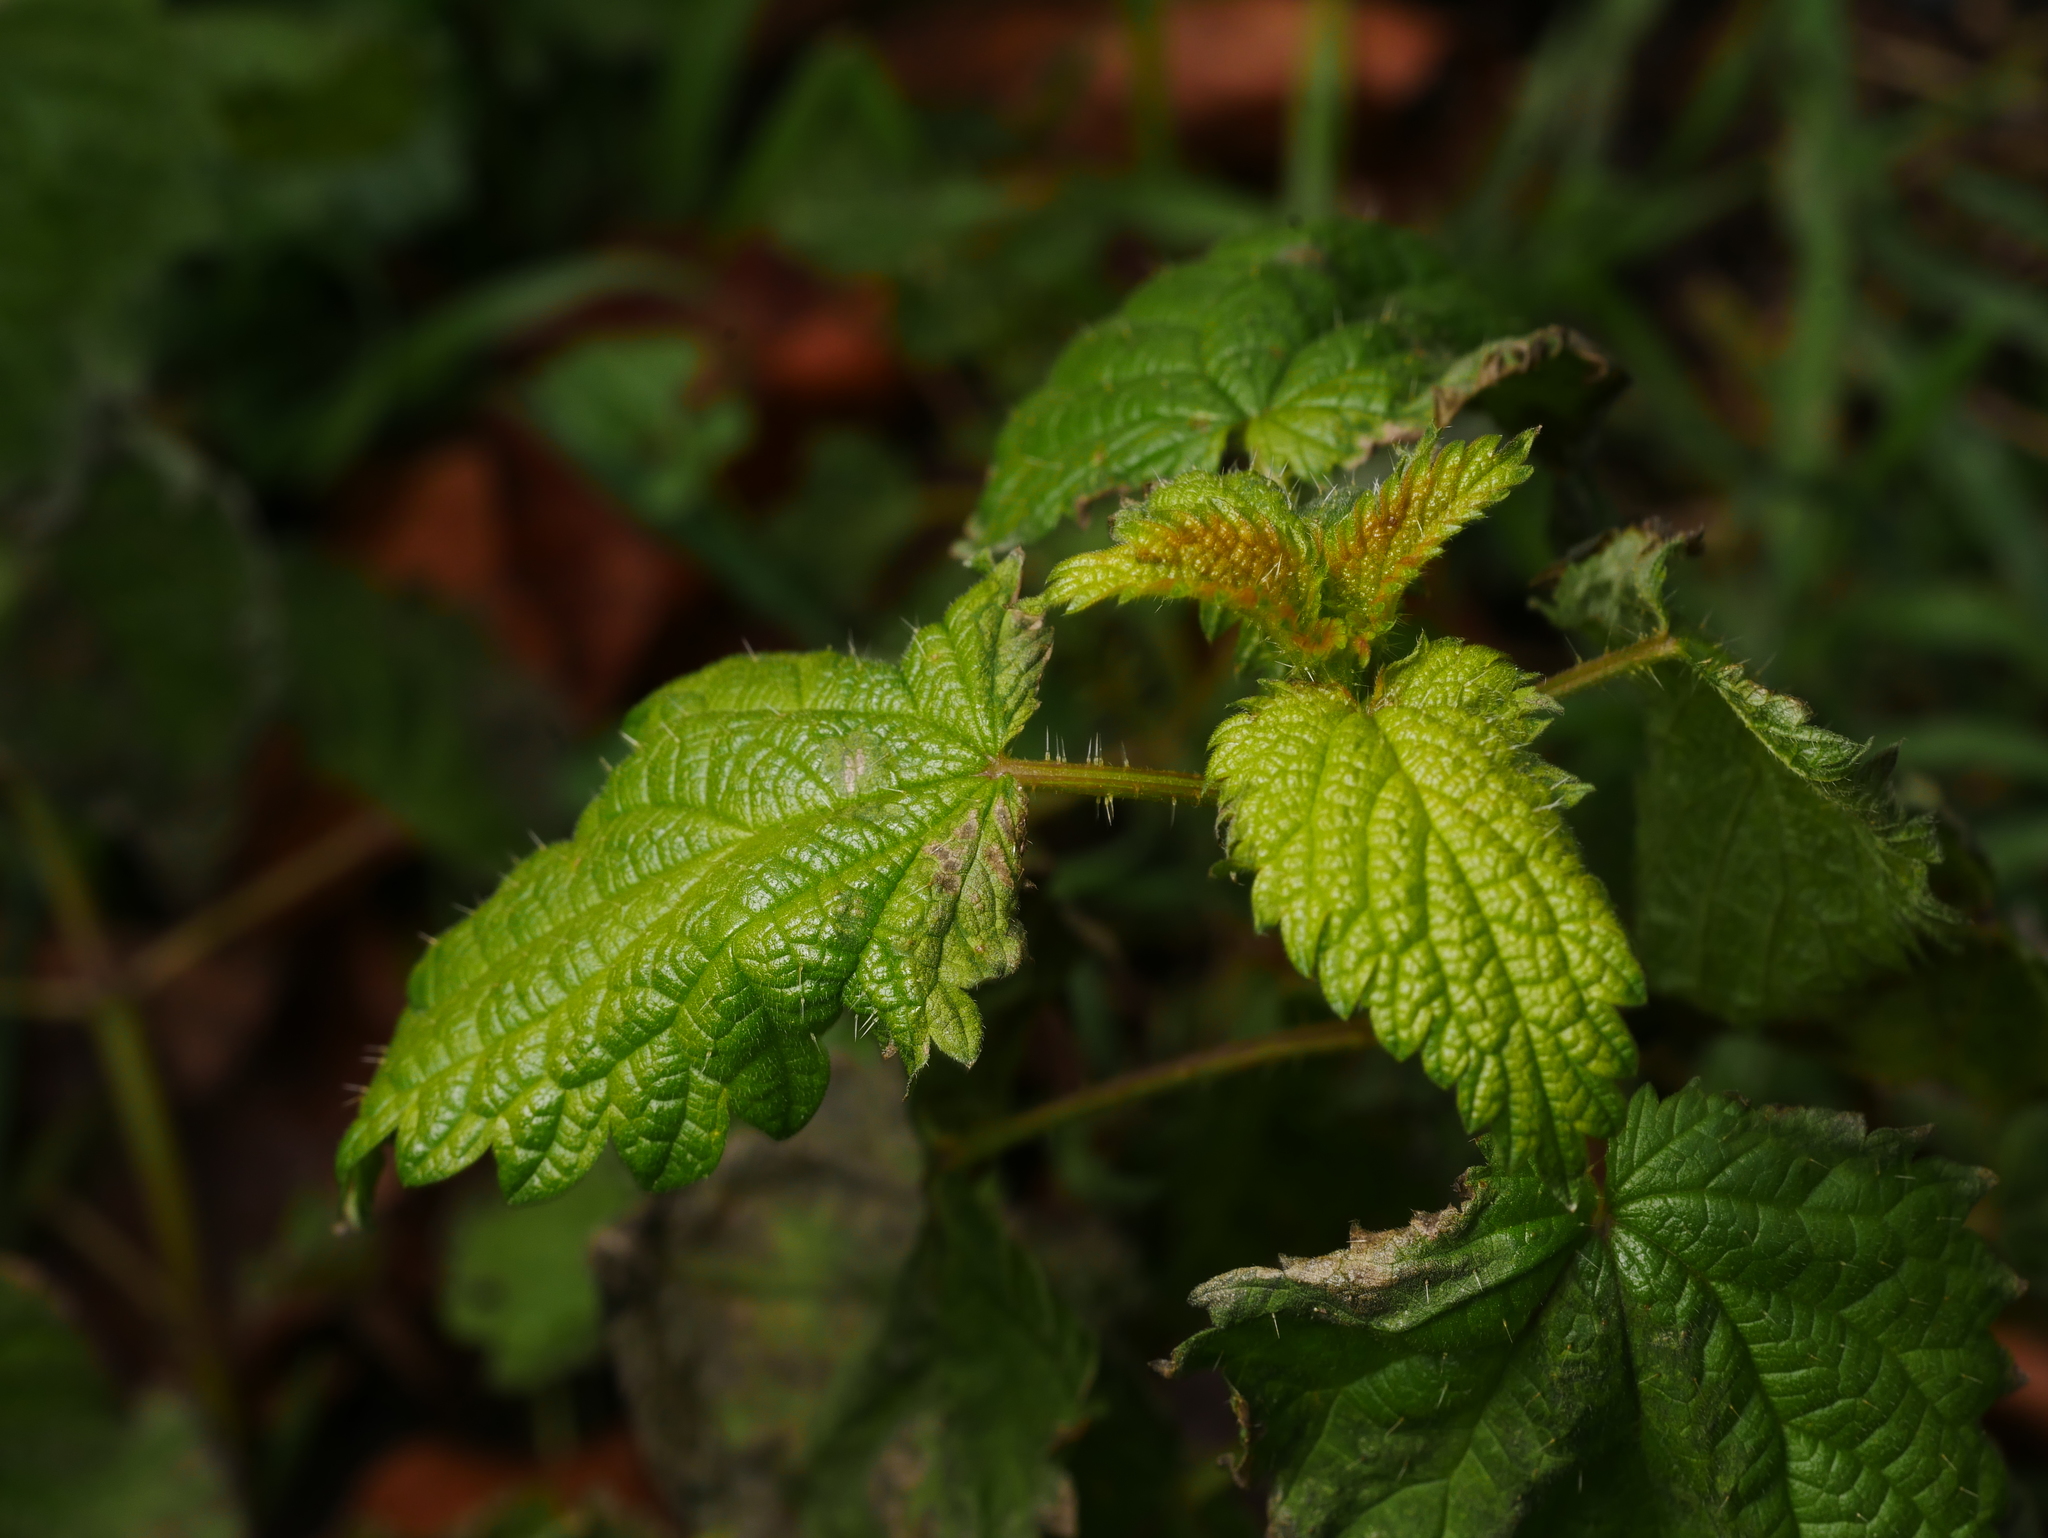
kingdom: Plantae
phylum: Tracheophyta
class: Magnoliopsida
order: Rosales
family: Urticaceae
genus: Urtica
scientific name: Urtica dioica
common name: Common nettle
